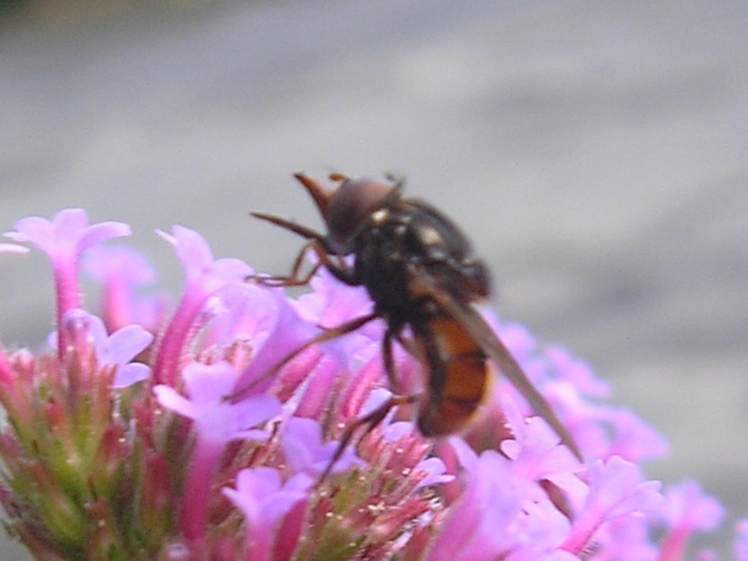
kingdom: Animalia
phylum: Arthropoda
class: Insecta
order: Diptera
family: Syrphidae
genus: Rhingia
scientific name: Rhingia campestris
